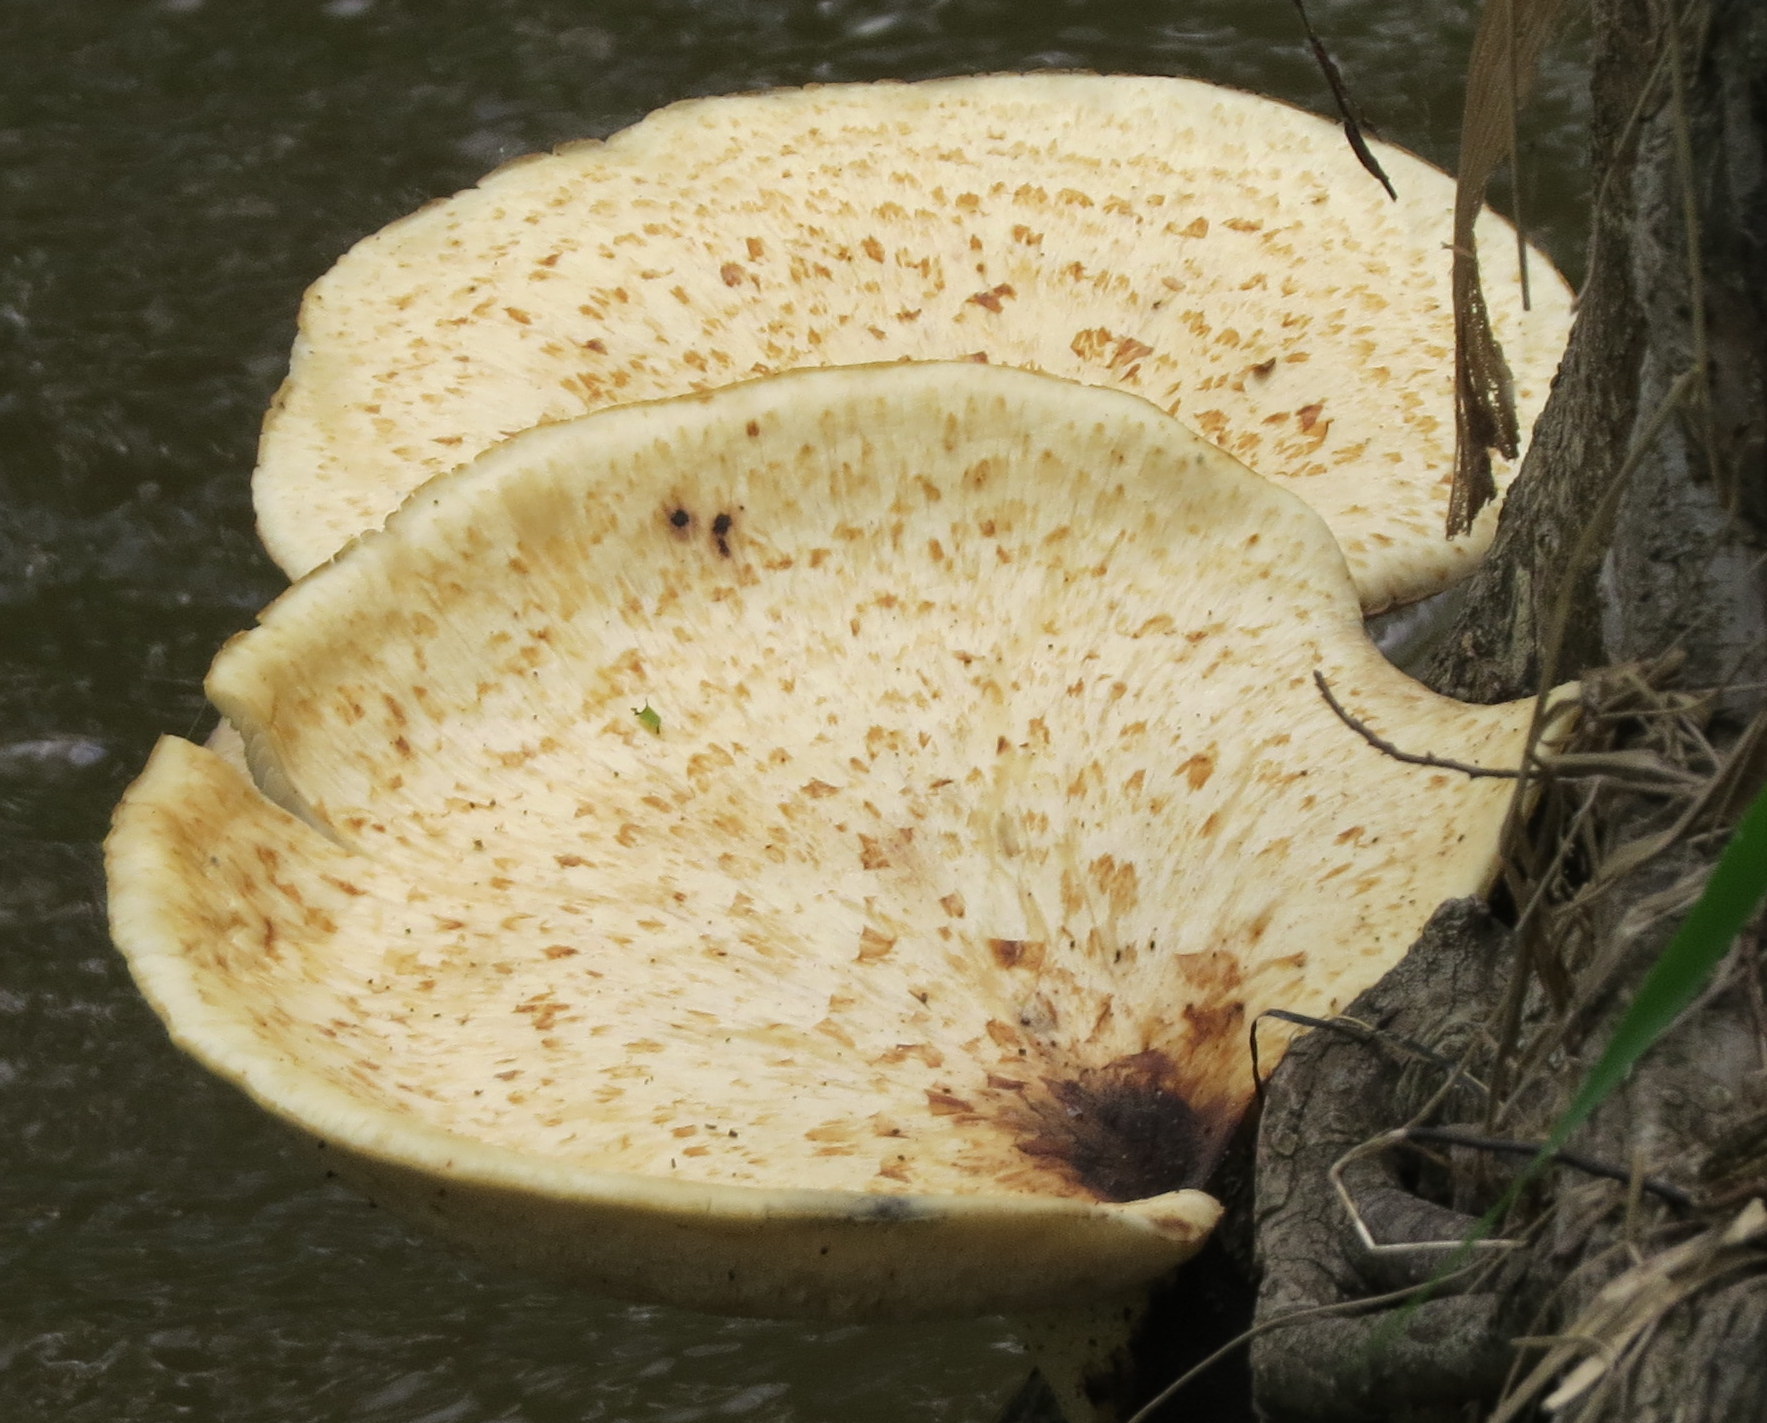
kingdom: Fungi
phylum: Basidiomycota
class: Agaricomycetes
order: Polyporales
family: Polyporaceae
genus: Cerioporus
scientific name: Cerioporus squamosus
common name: Dryad's saddle
